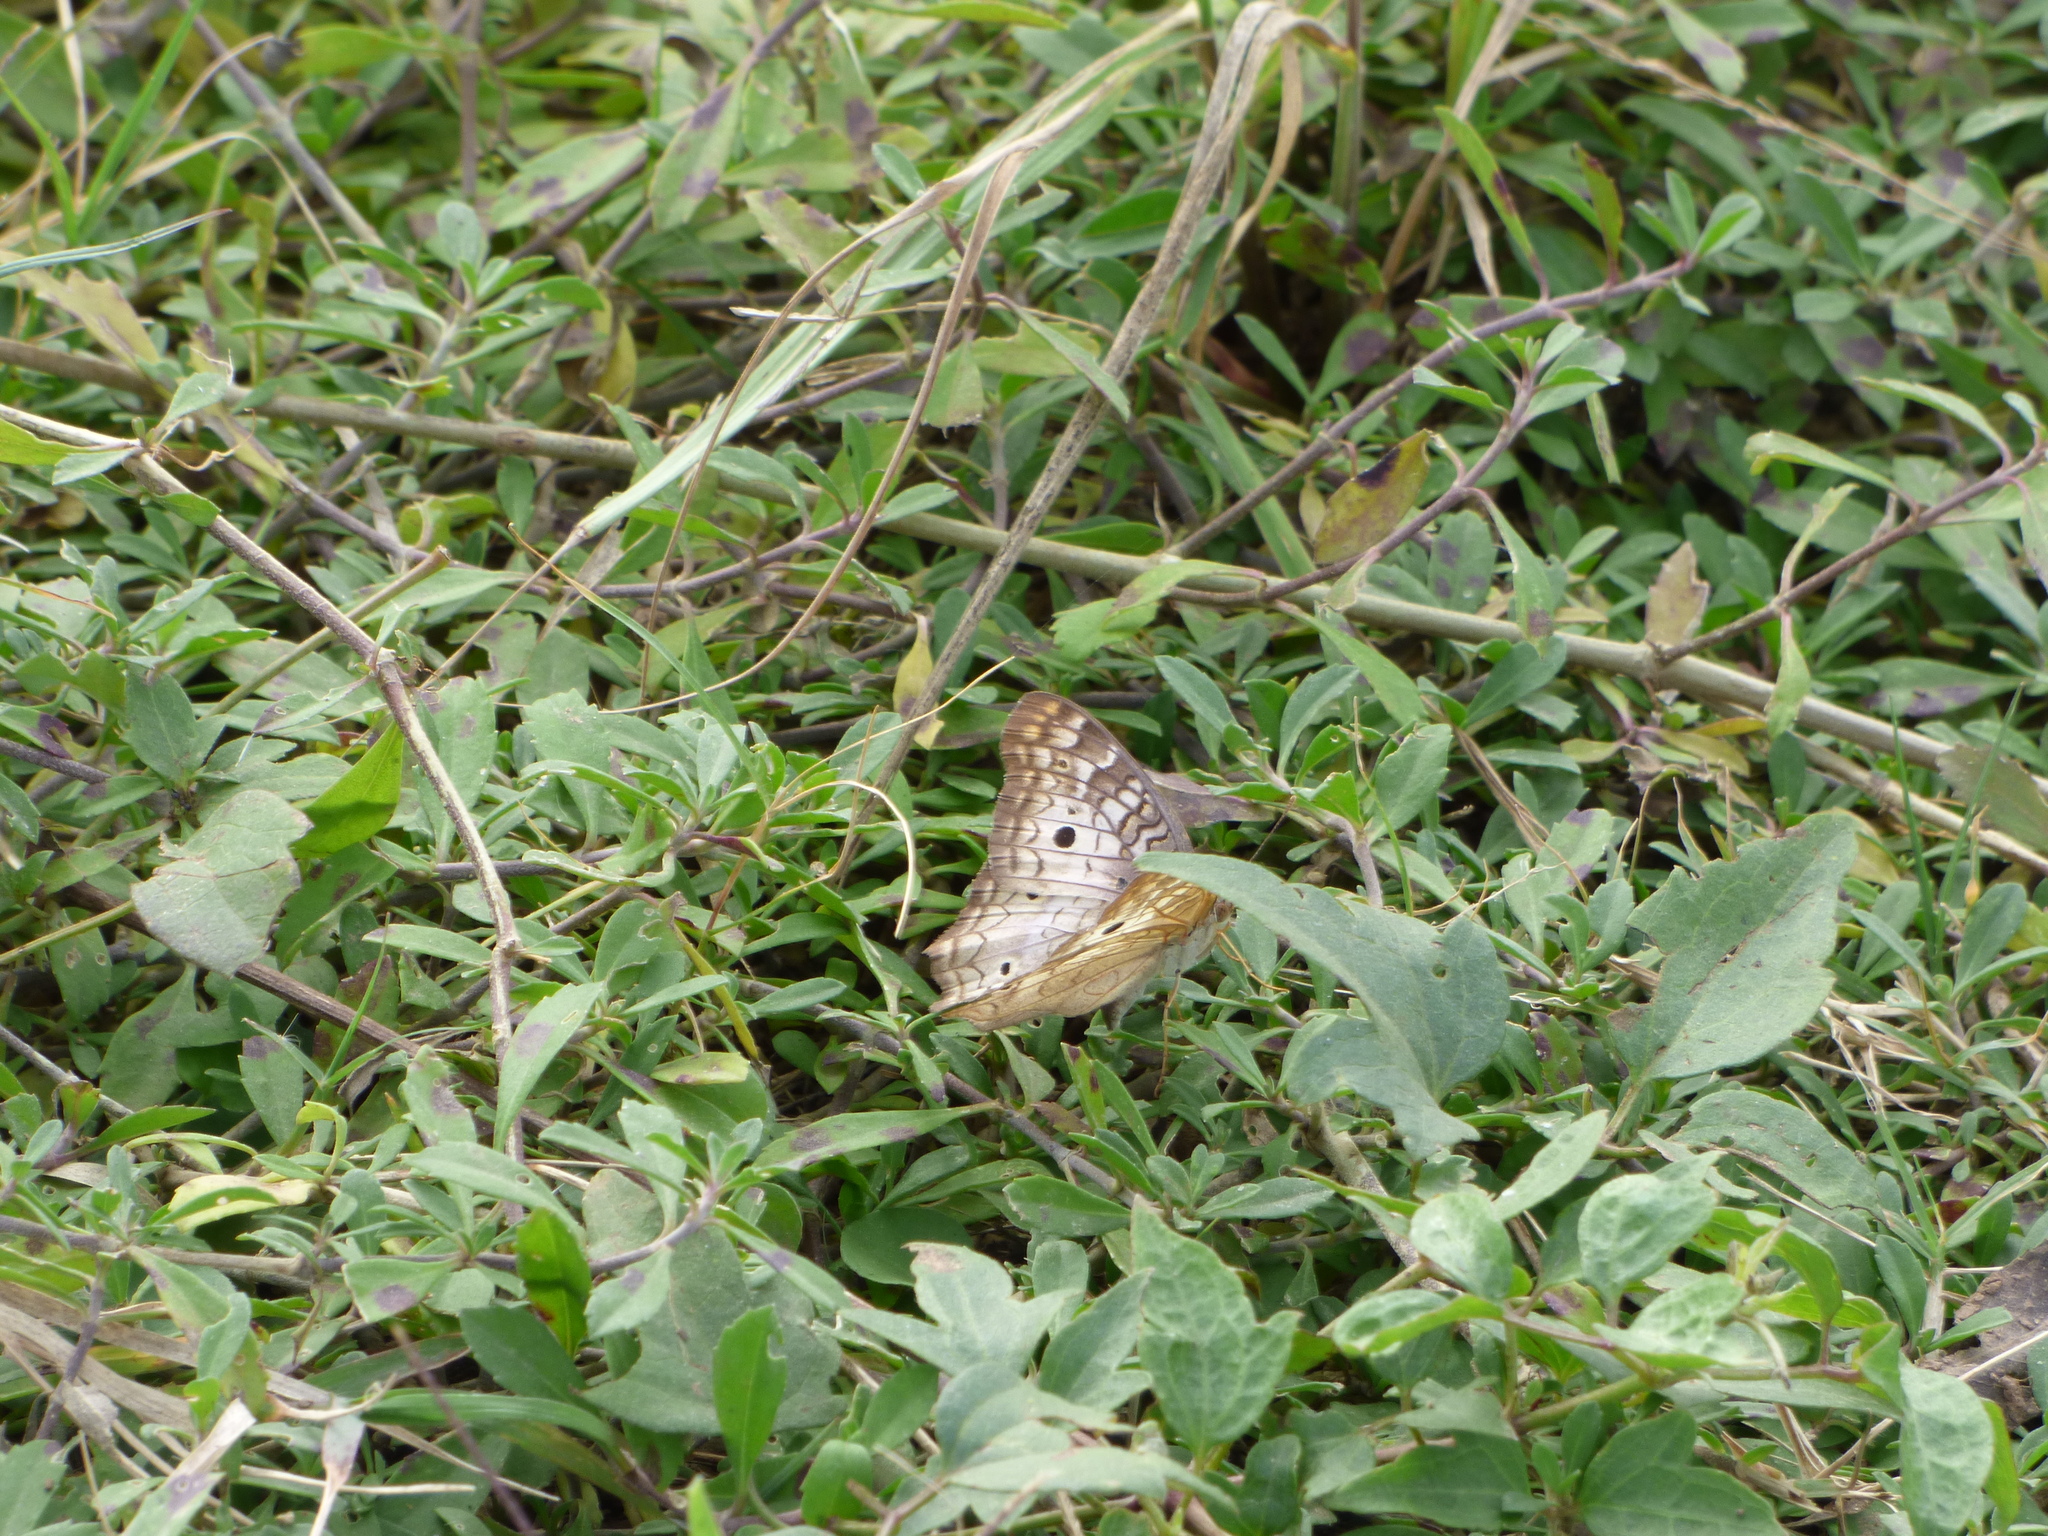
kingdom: Animalia
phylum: Arthropoda
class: Insecta
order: Lepidoptera
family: Nymphalidae
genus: Anartia
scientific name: Anartia jatrophae
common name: White peacock
